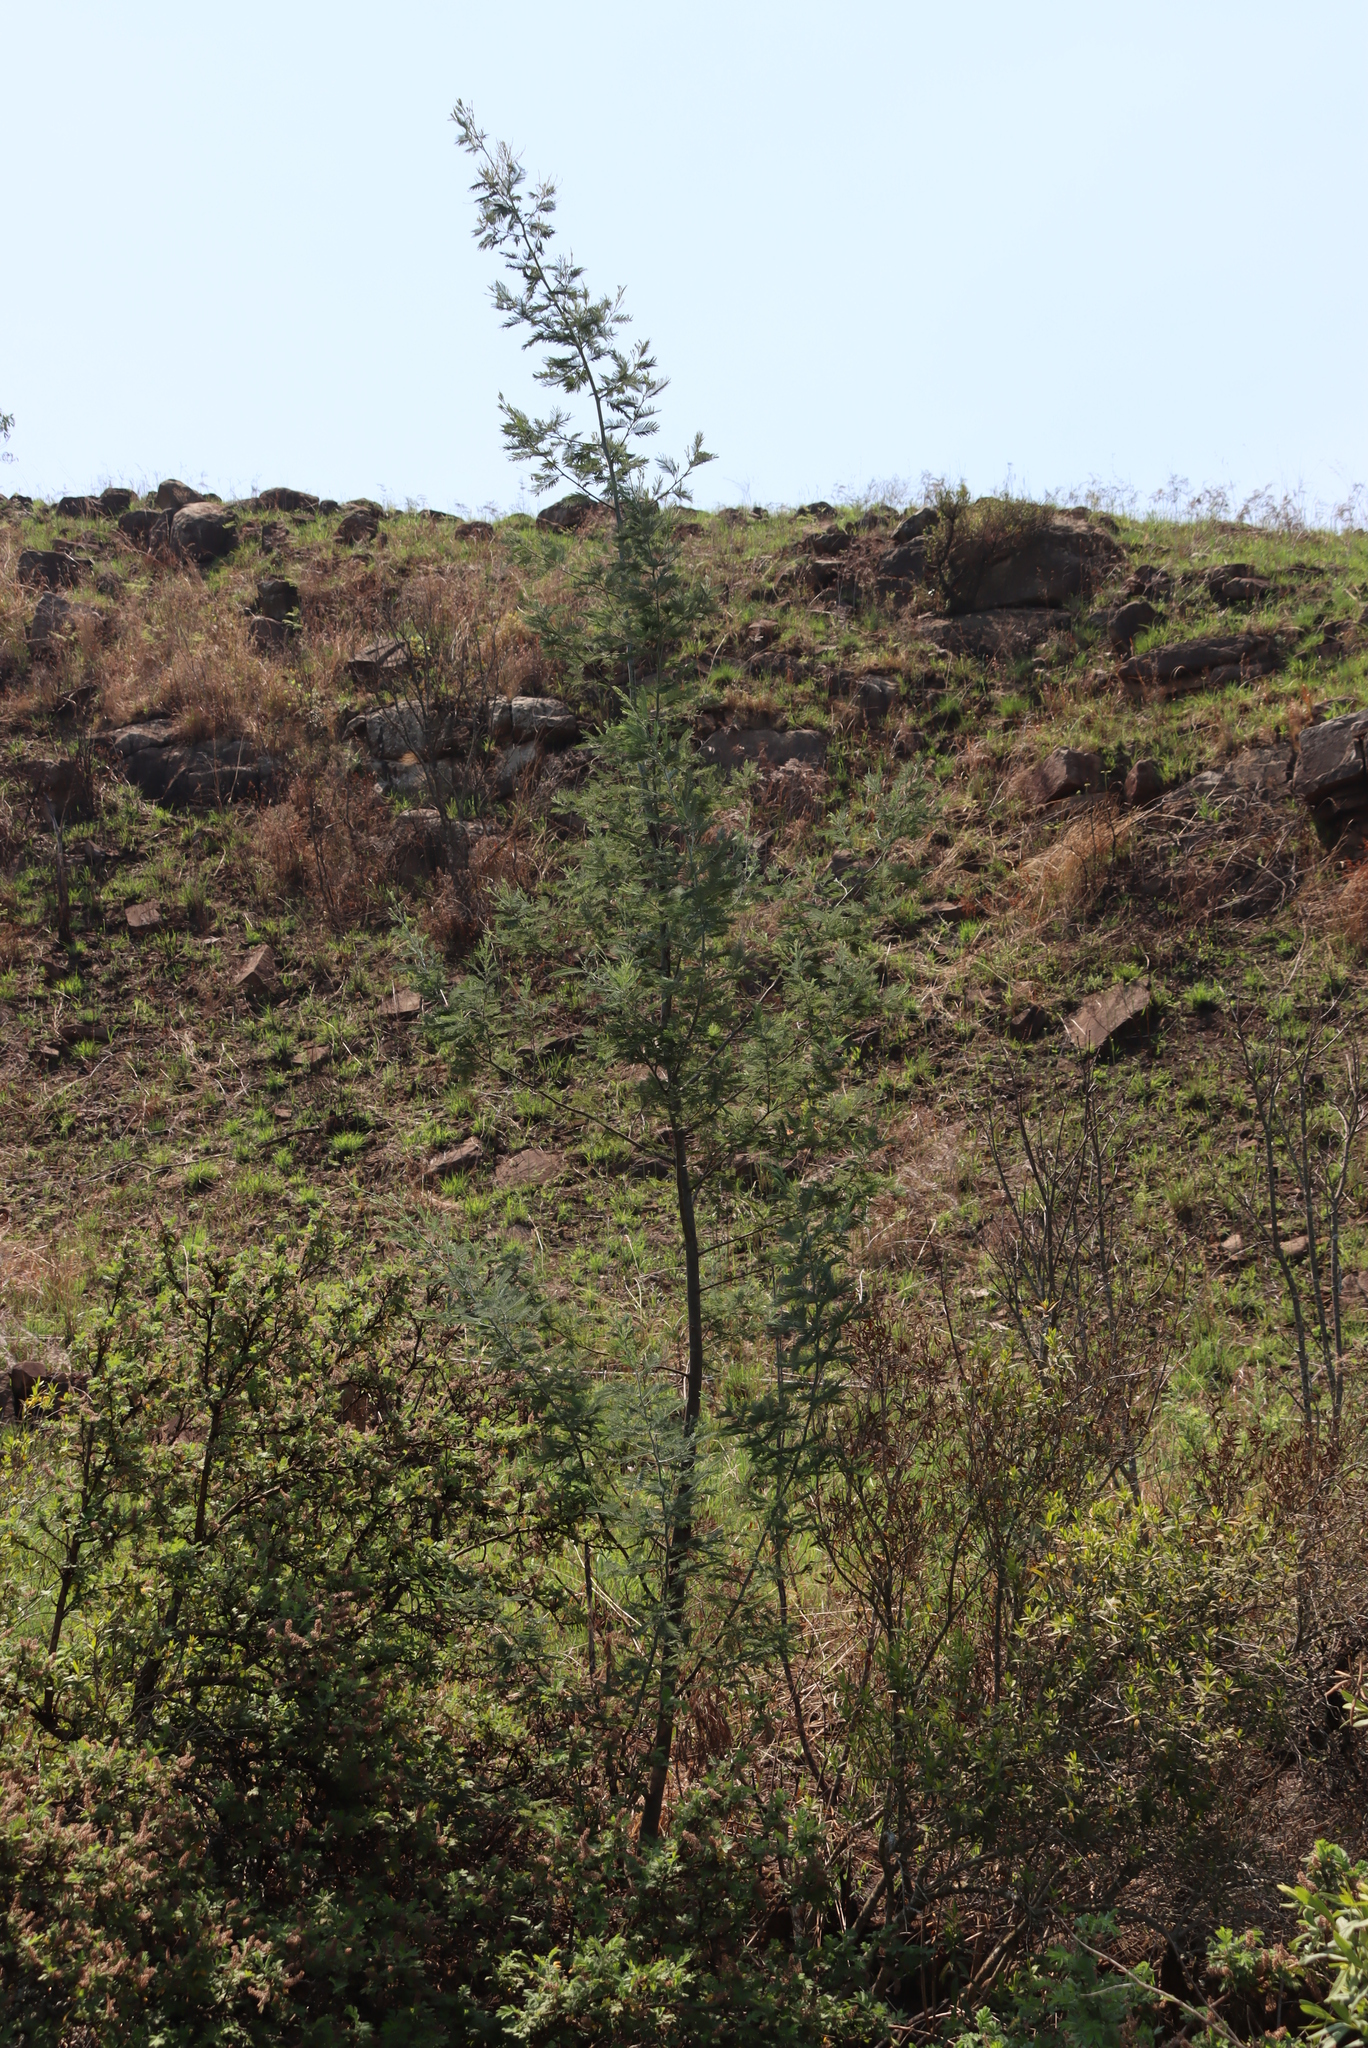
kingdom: Plantae
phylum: Tracheophyta
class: Magnoliopsida
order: Fabales
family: Fabaceae
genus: Acacia
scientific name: Acacia dealbata
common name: Silver wattle
